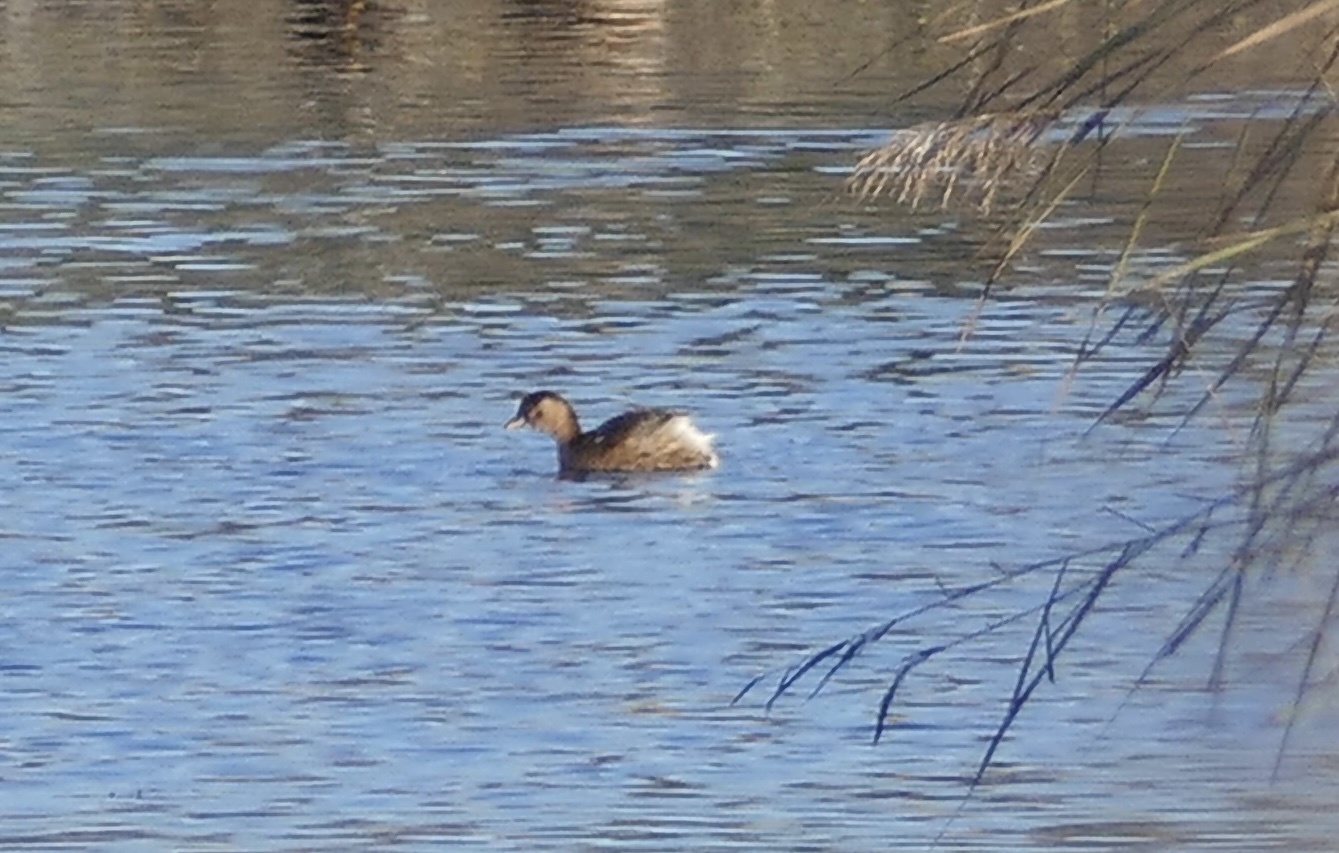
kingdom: Animalia
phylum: Chordata
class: Aves
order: Podicipediformes
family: Podicipedidae
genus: Tachybaptus
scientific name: Tachybaptus ruficollis
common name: Little grebe
